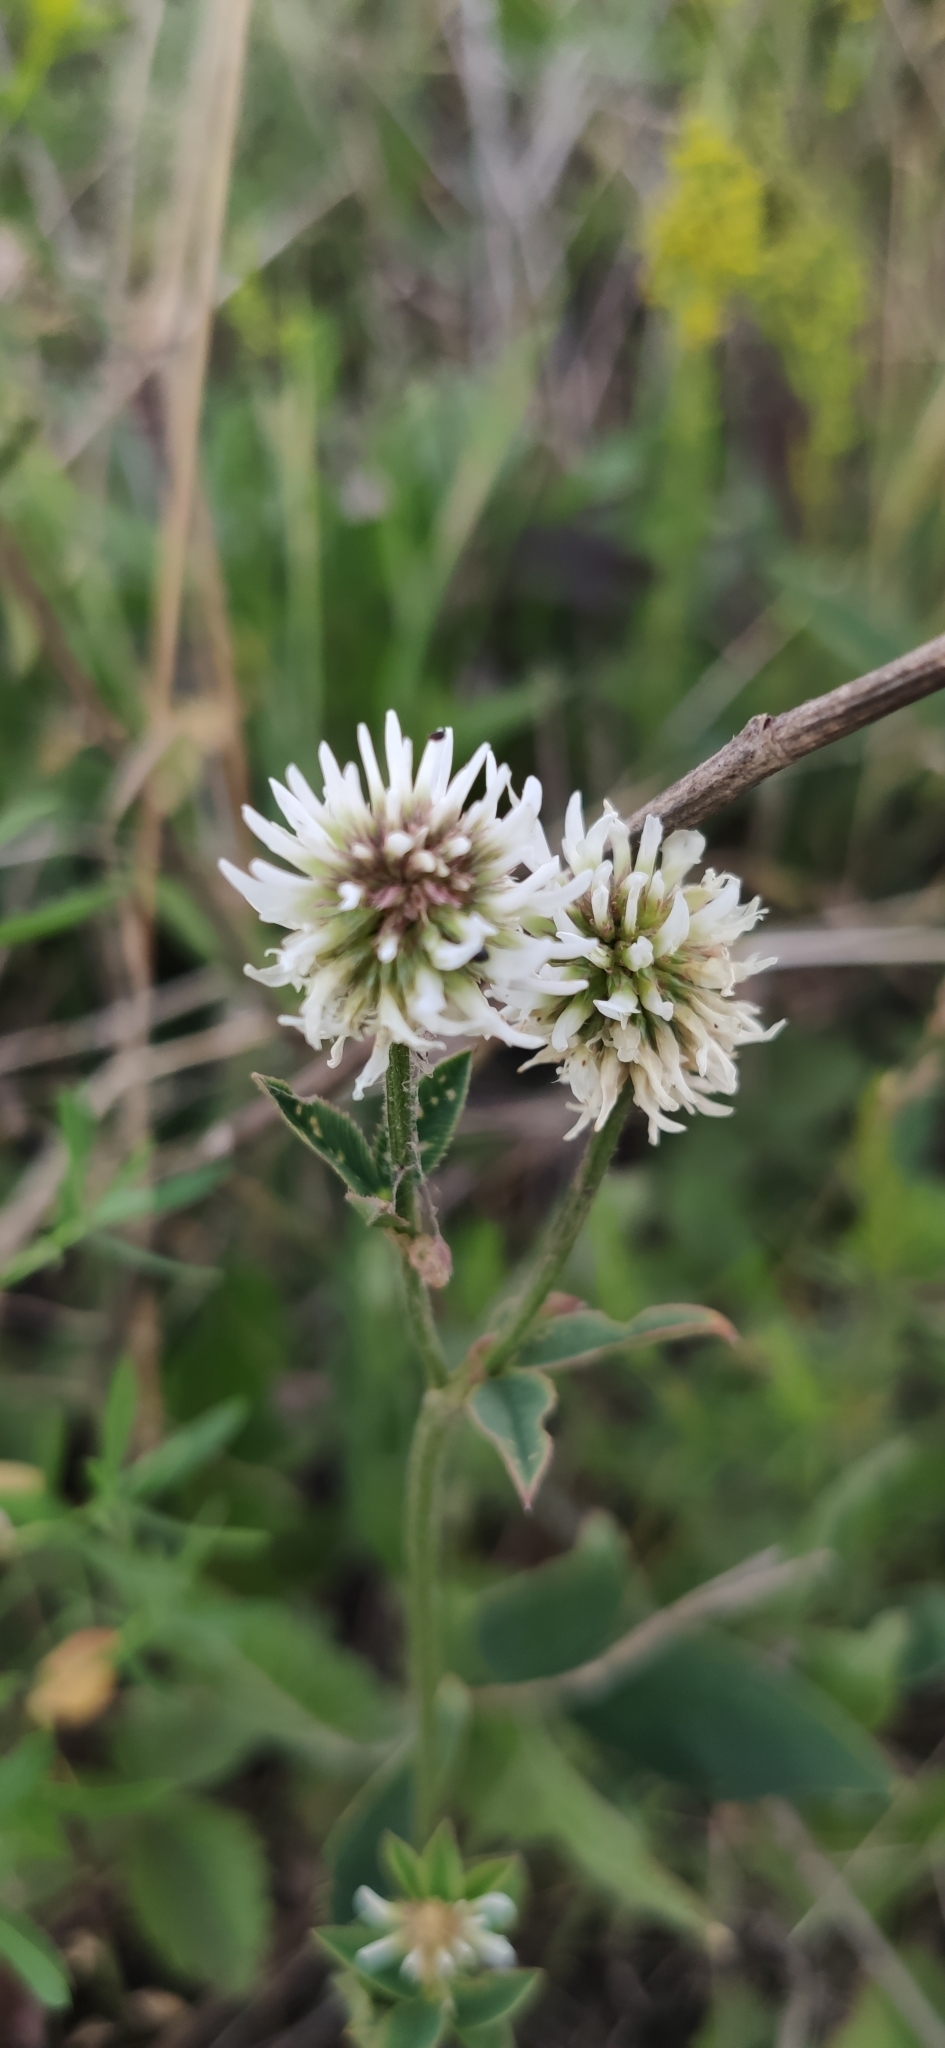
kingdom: Plantae
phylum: Tracheophyta
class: Magnoliopsida
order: Fabales
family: Fabaceae
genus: Trifolium
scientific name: Trifolium montanum
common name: Mountain clover
